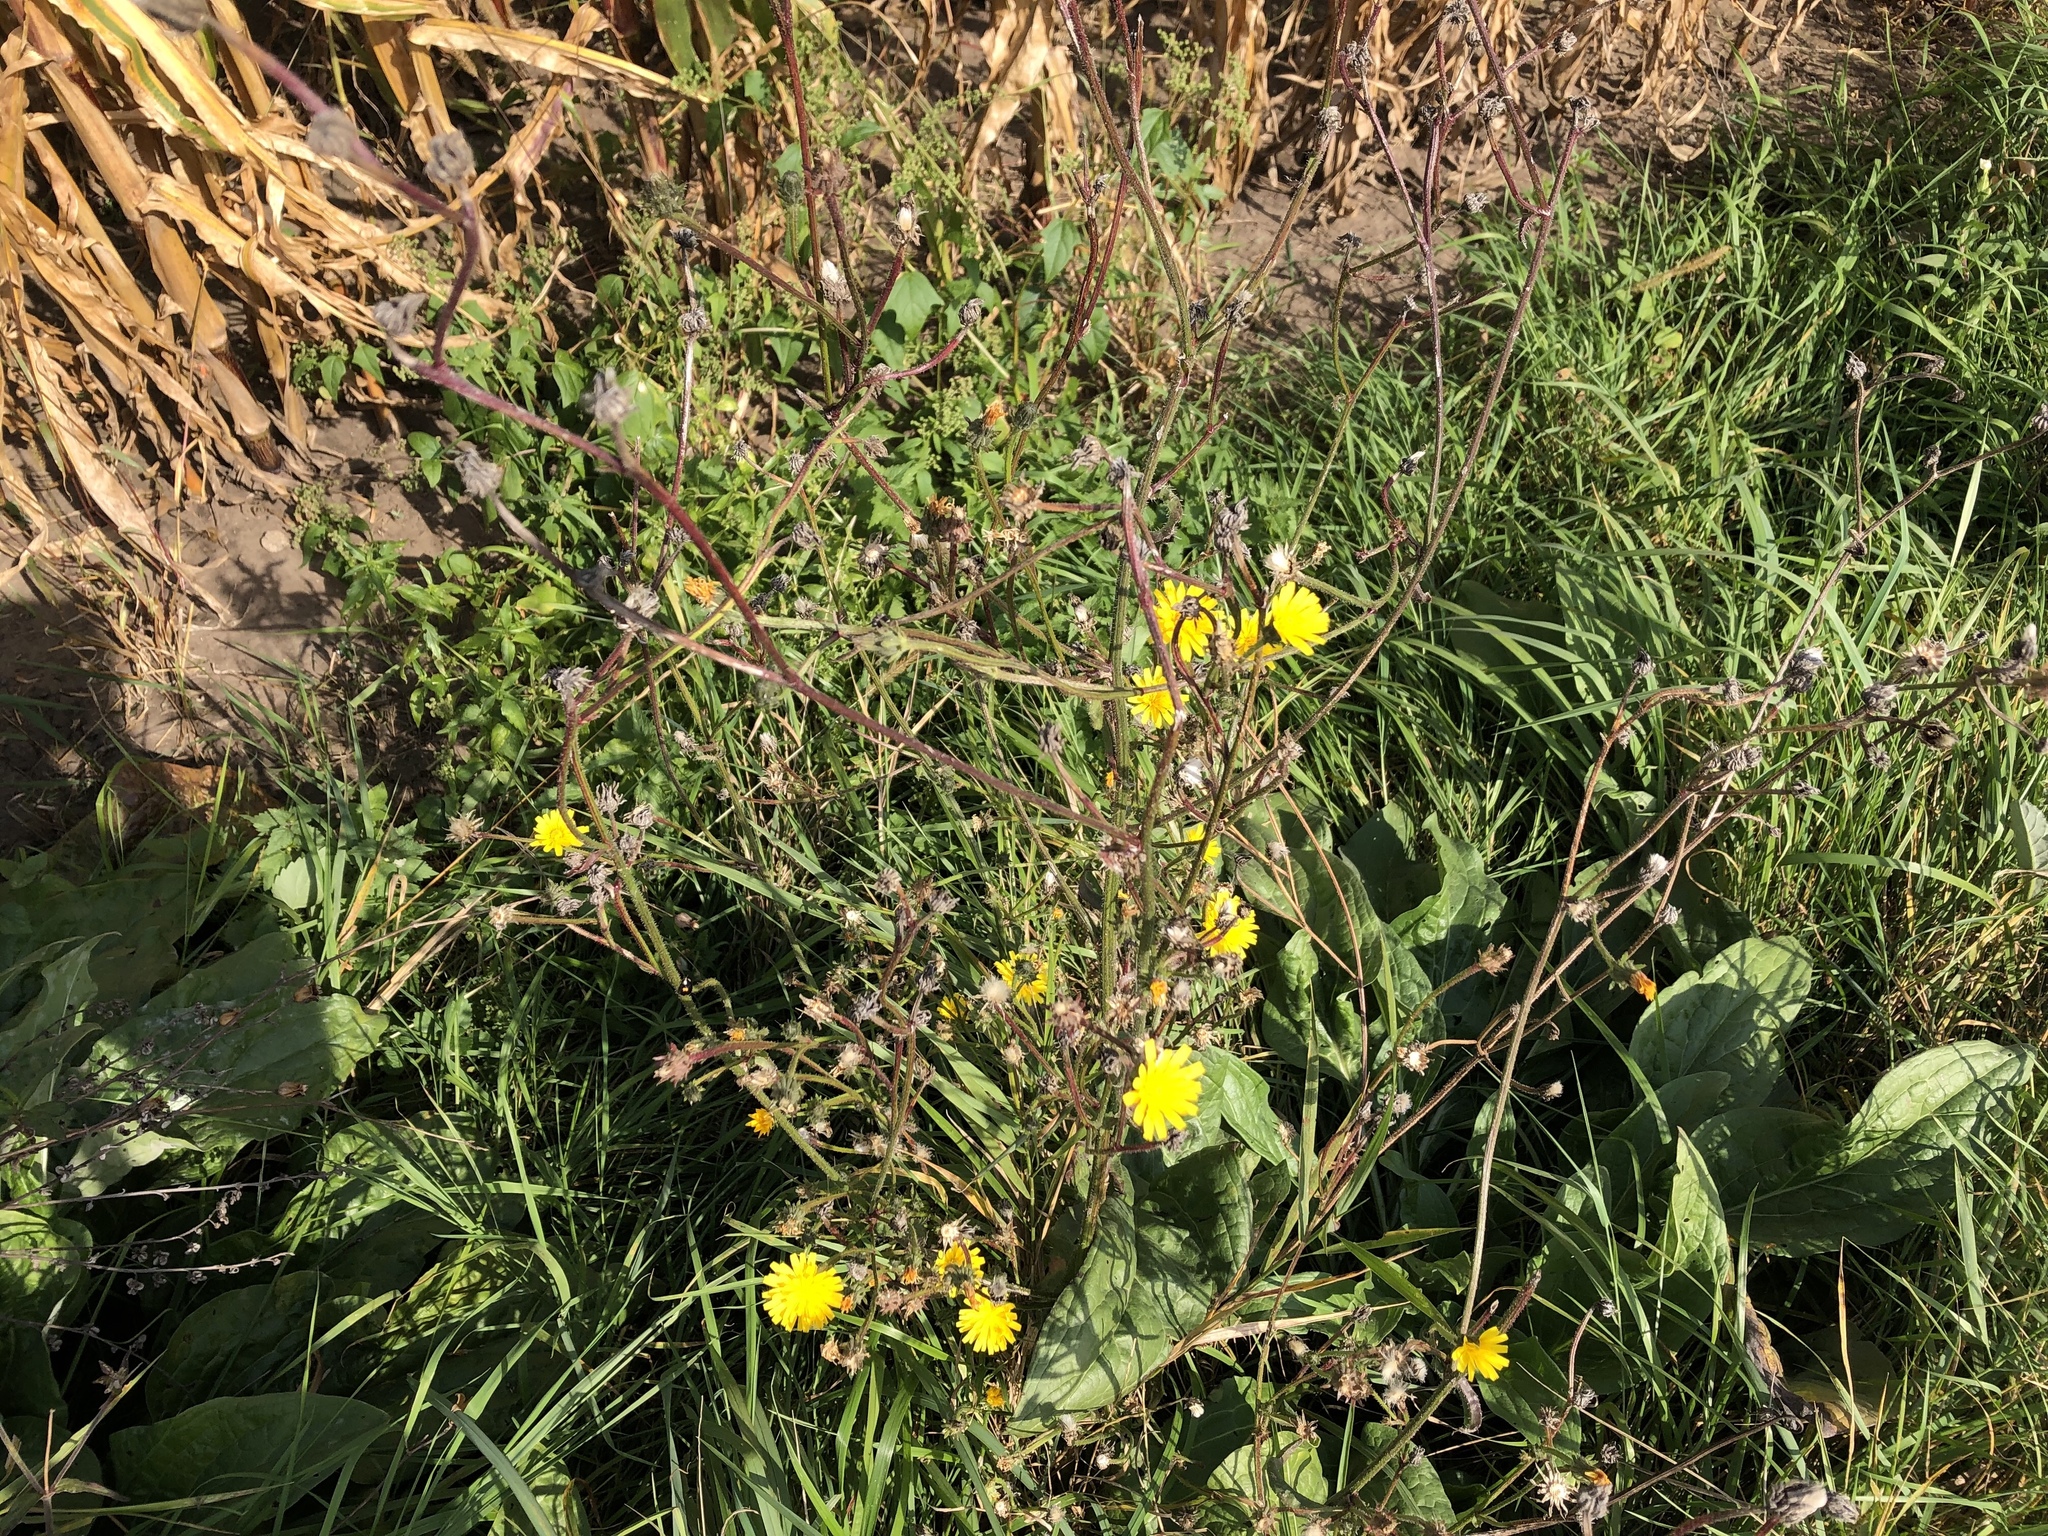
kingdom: Plantae
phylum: Tracheophyta
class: Magnoliopsida
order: Asterales
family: Asteraceae
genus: Picris
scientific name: Picris hieracioides
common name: Hawkweed oxtongue
